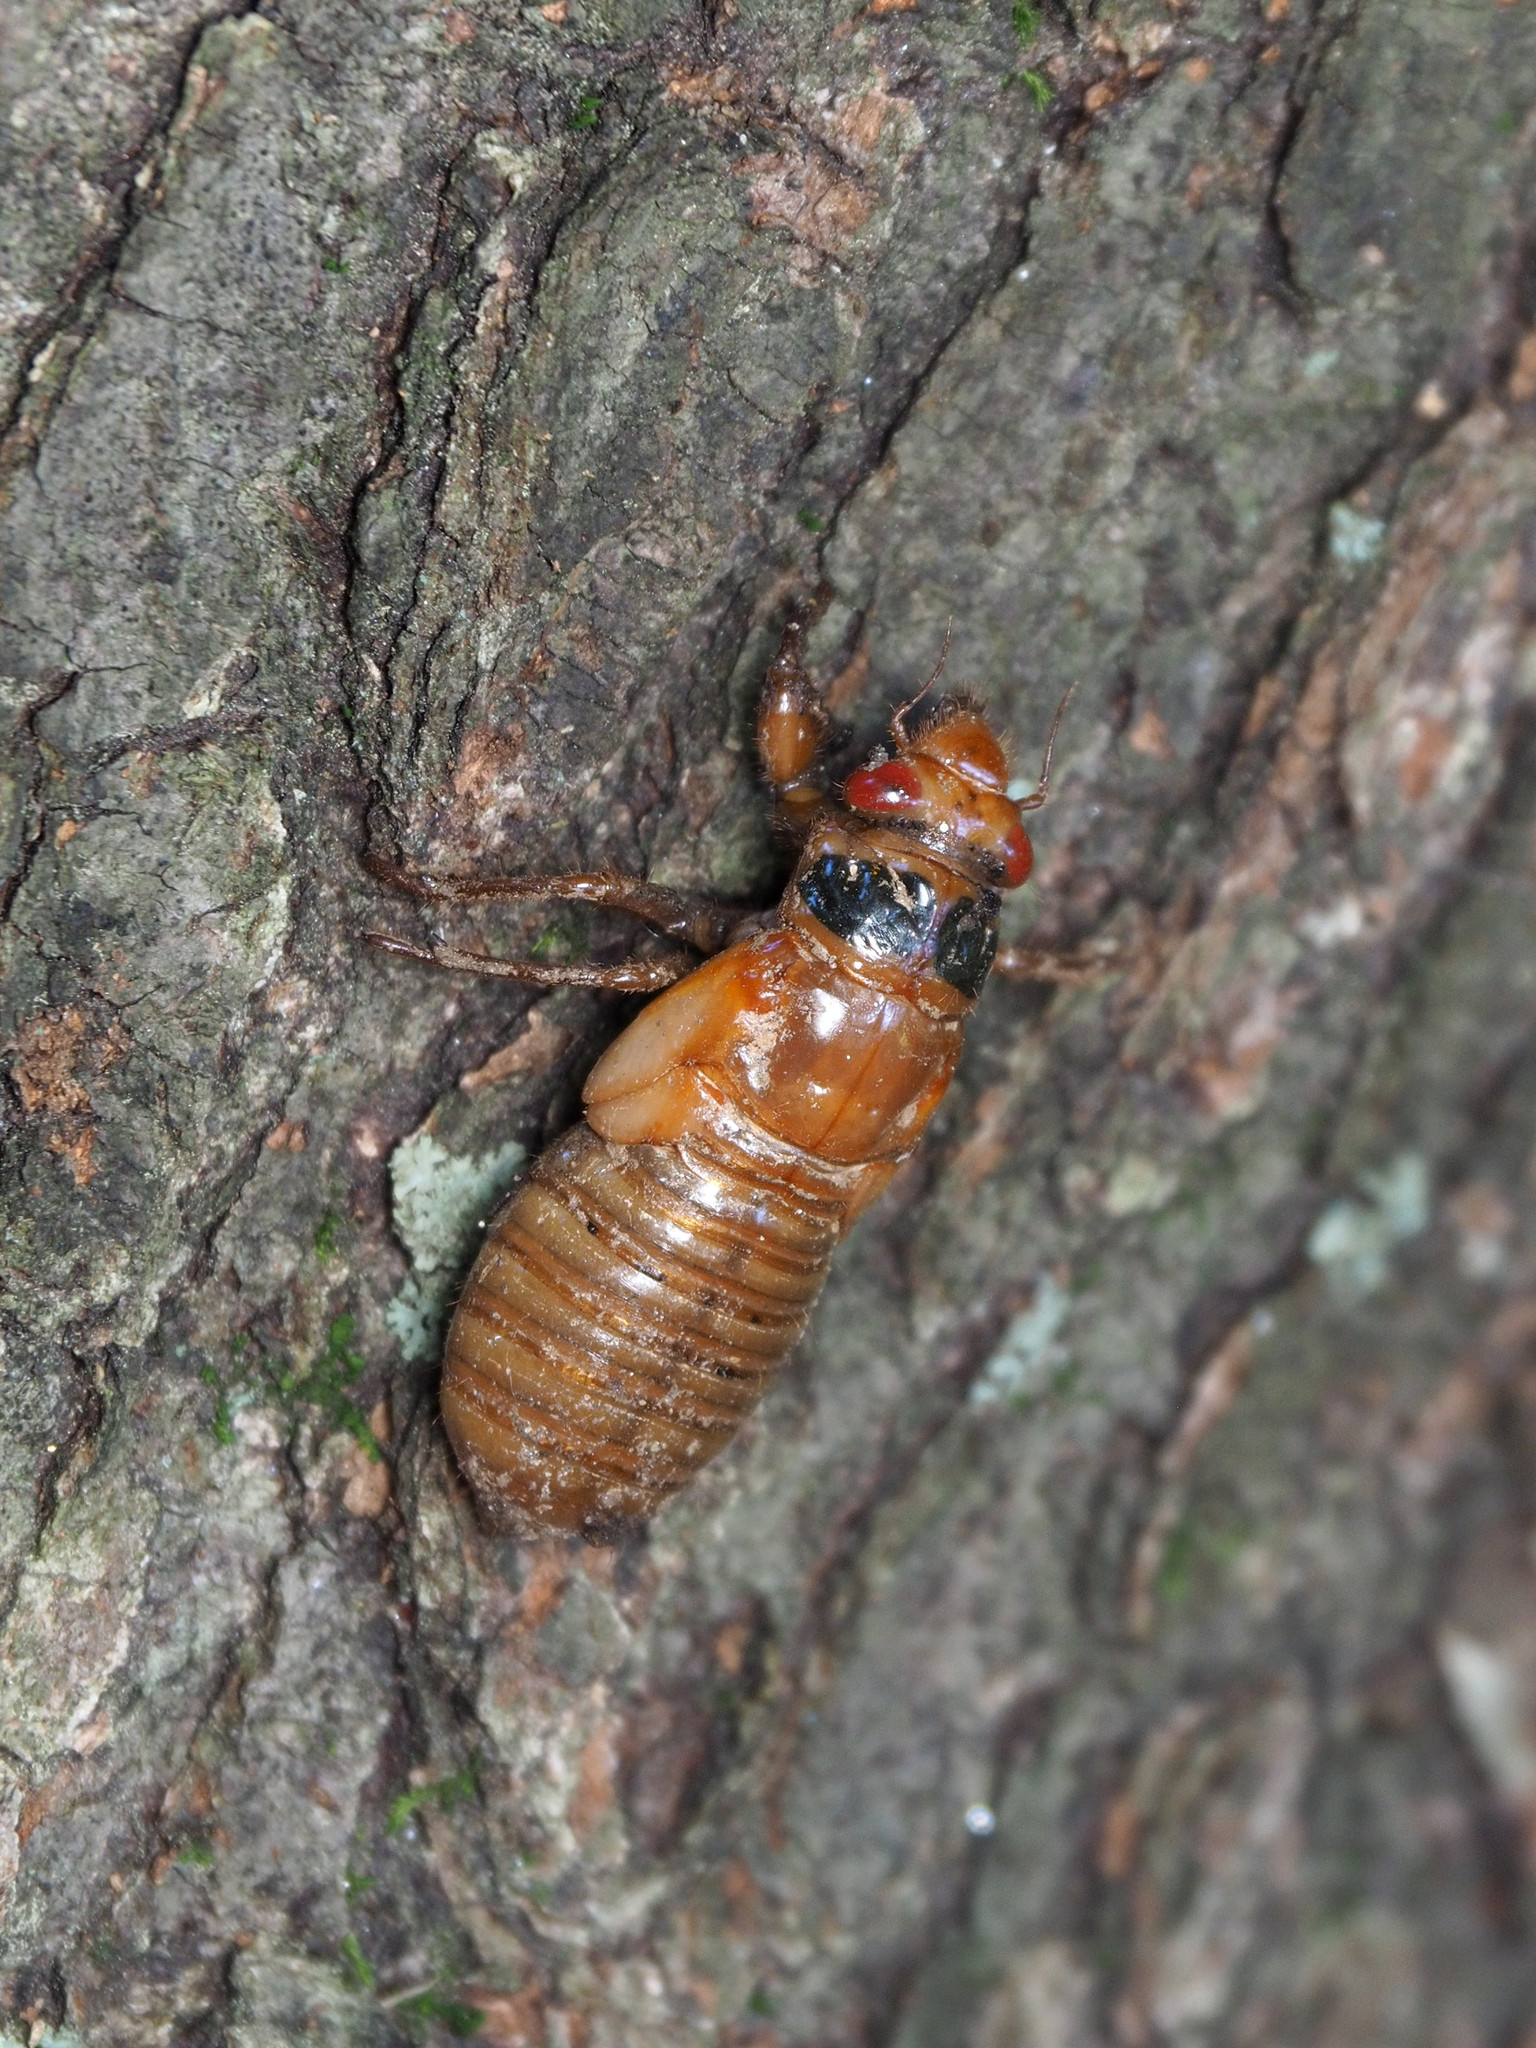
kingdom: Animalia
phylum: Arthropoda
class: Insecta
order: Hemiptera
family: Cicadidae
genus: Magicicada
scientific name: Magicicada
